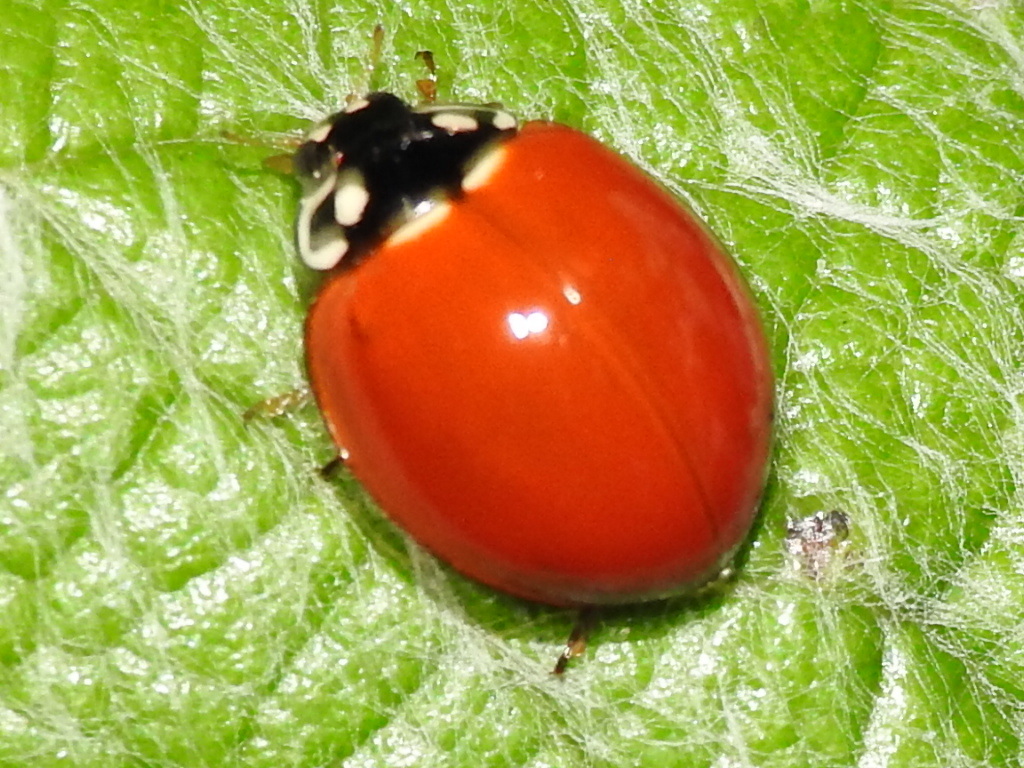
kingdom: Animalia
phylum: Arthropoda
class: Insecta
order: Coleoptera
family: Coccinellidae
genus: Cycloneda
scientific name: Cycloneda sanguinea
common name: Ladybird beetle
